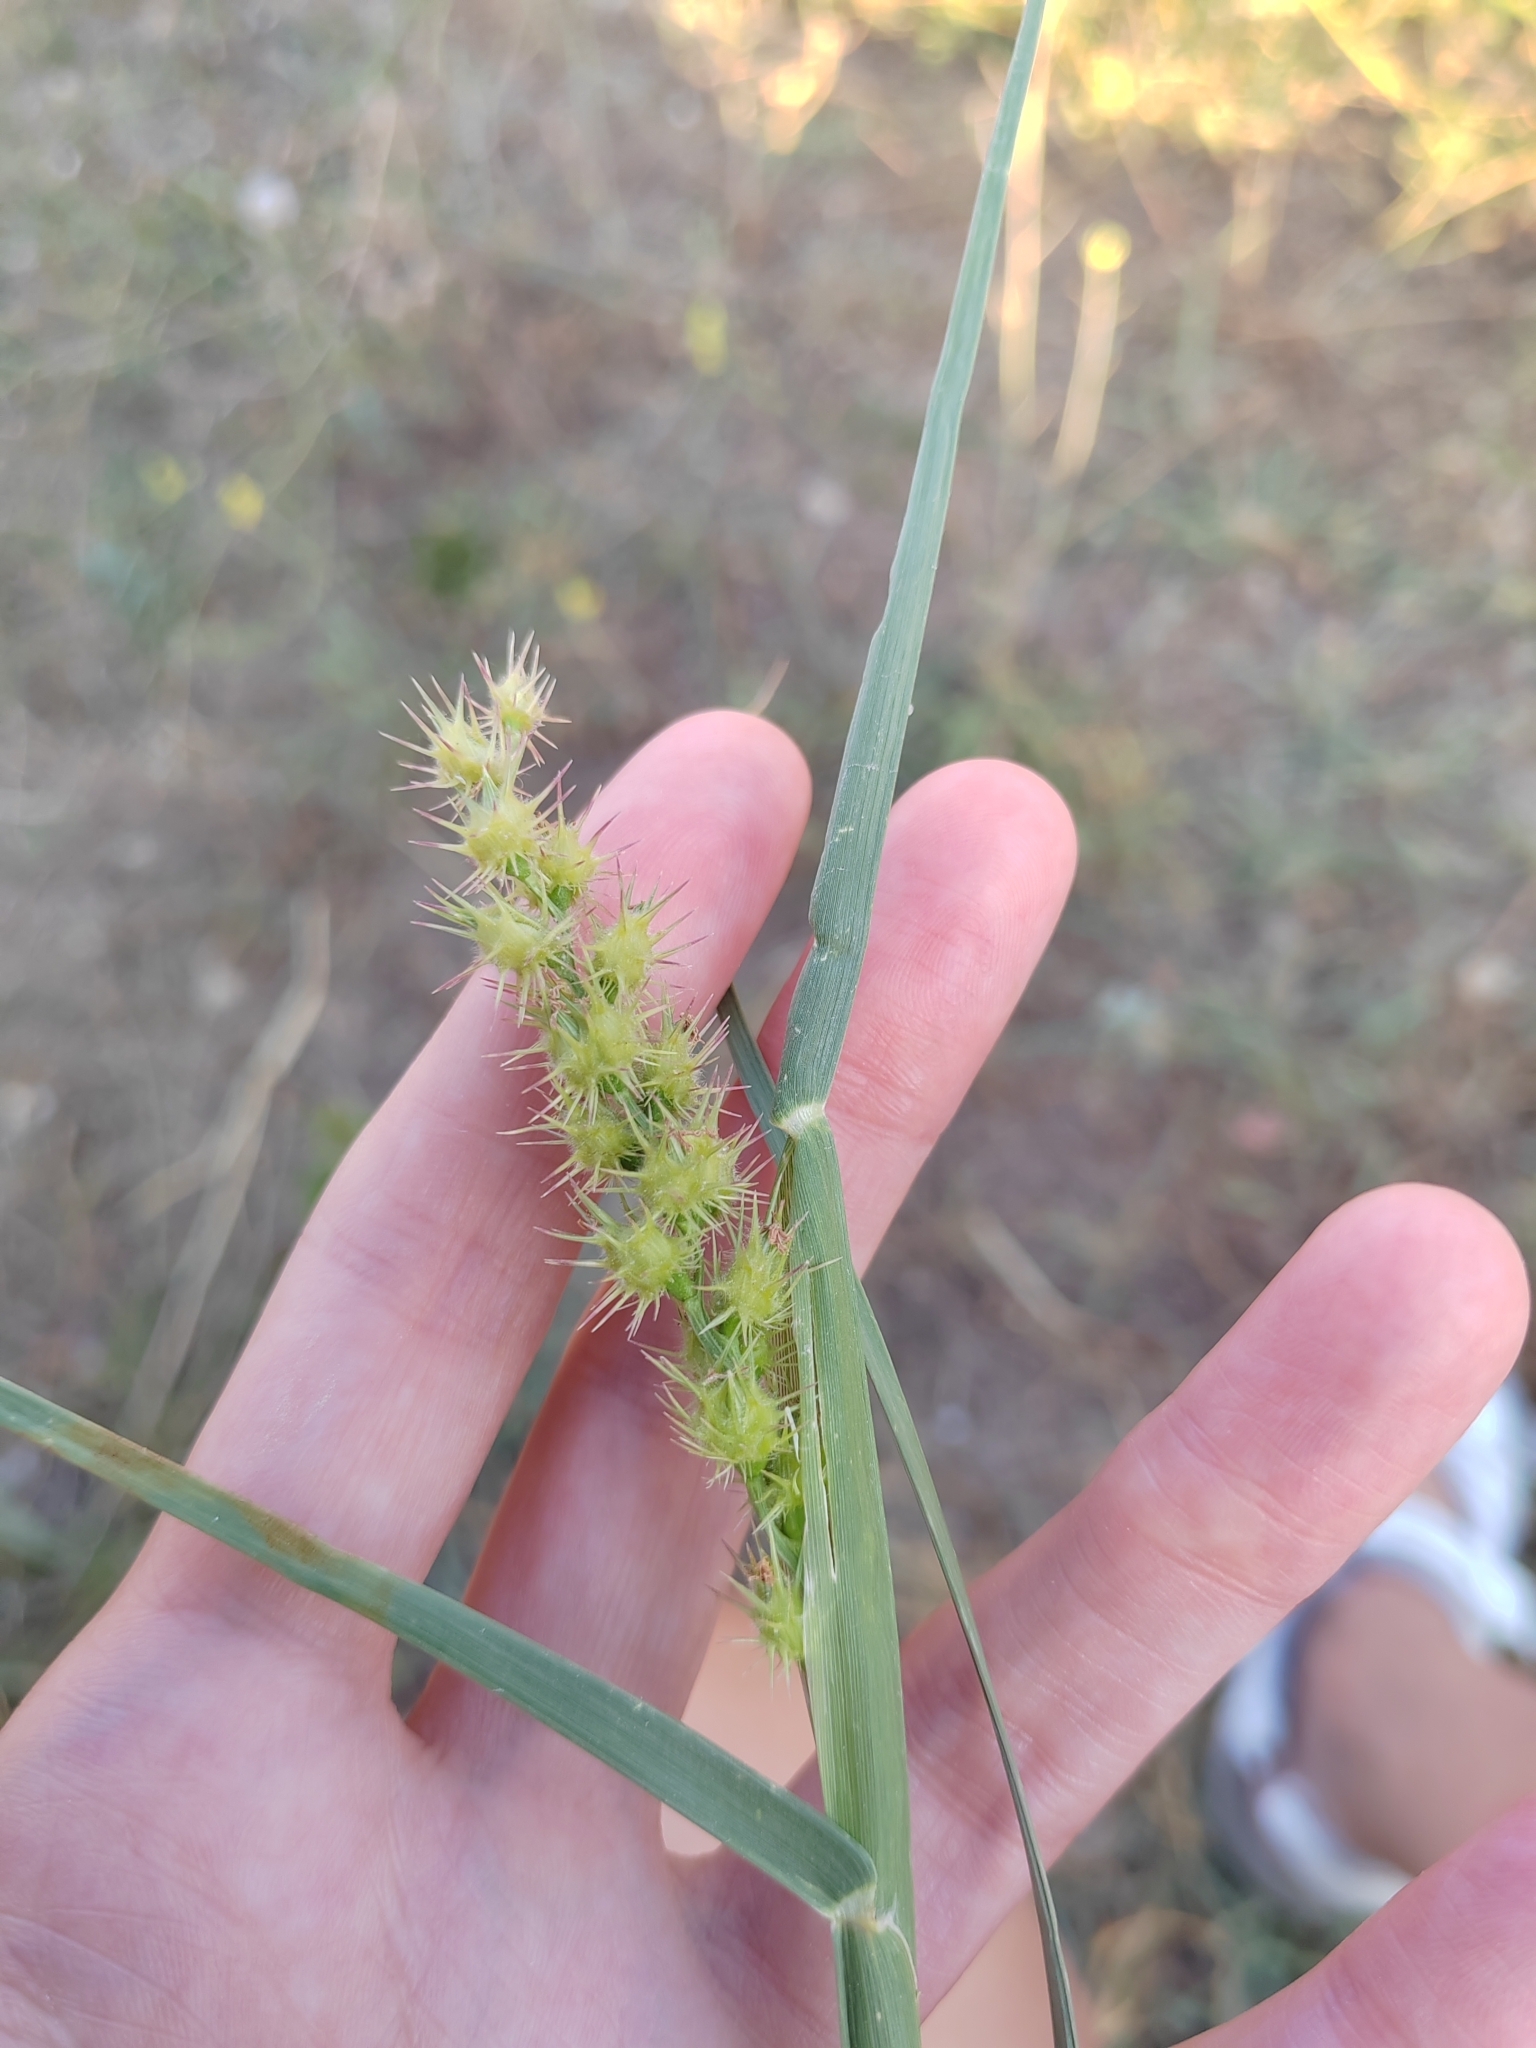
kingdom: Plantae
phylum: Tracheophyta
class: Liliopsida
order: Poales
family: Poaceae
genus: Cenchrus
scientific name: Cenchrus longispinus
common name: Mat sandbur
